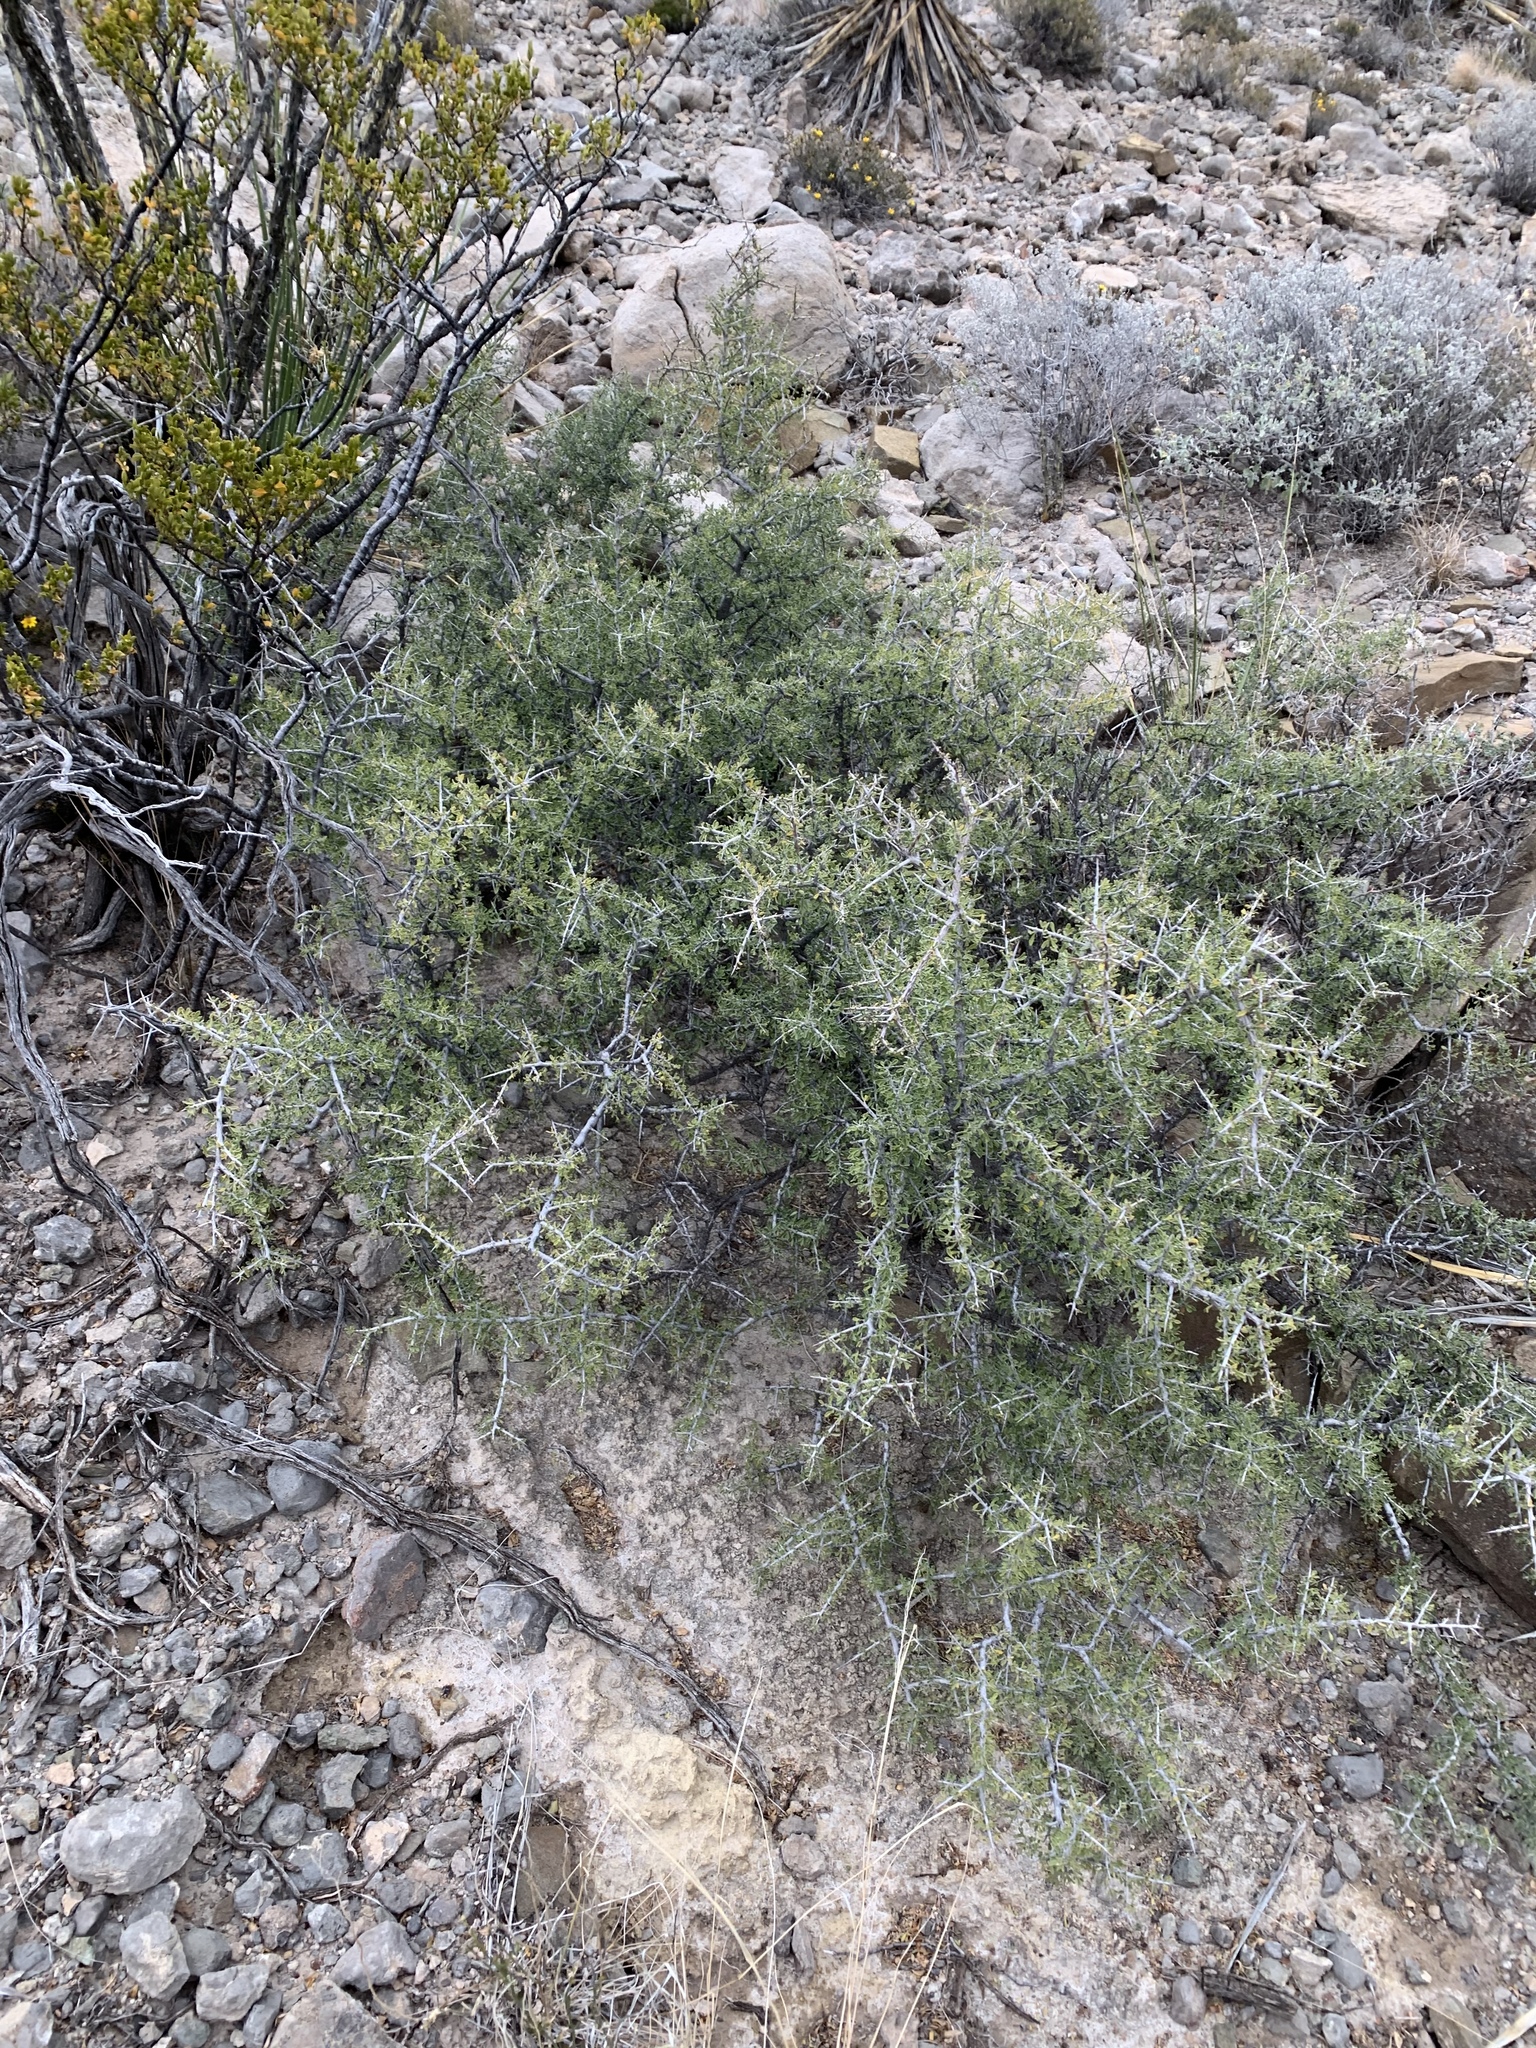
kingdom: Plantae
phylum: Tracheophyta
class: Magnoliopsida
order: Rosales
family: Rhamnaceae
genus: Condalia
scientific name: Condalia warnockii
